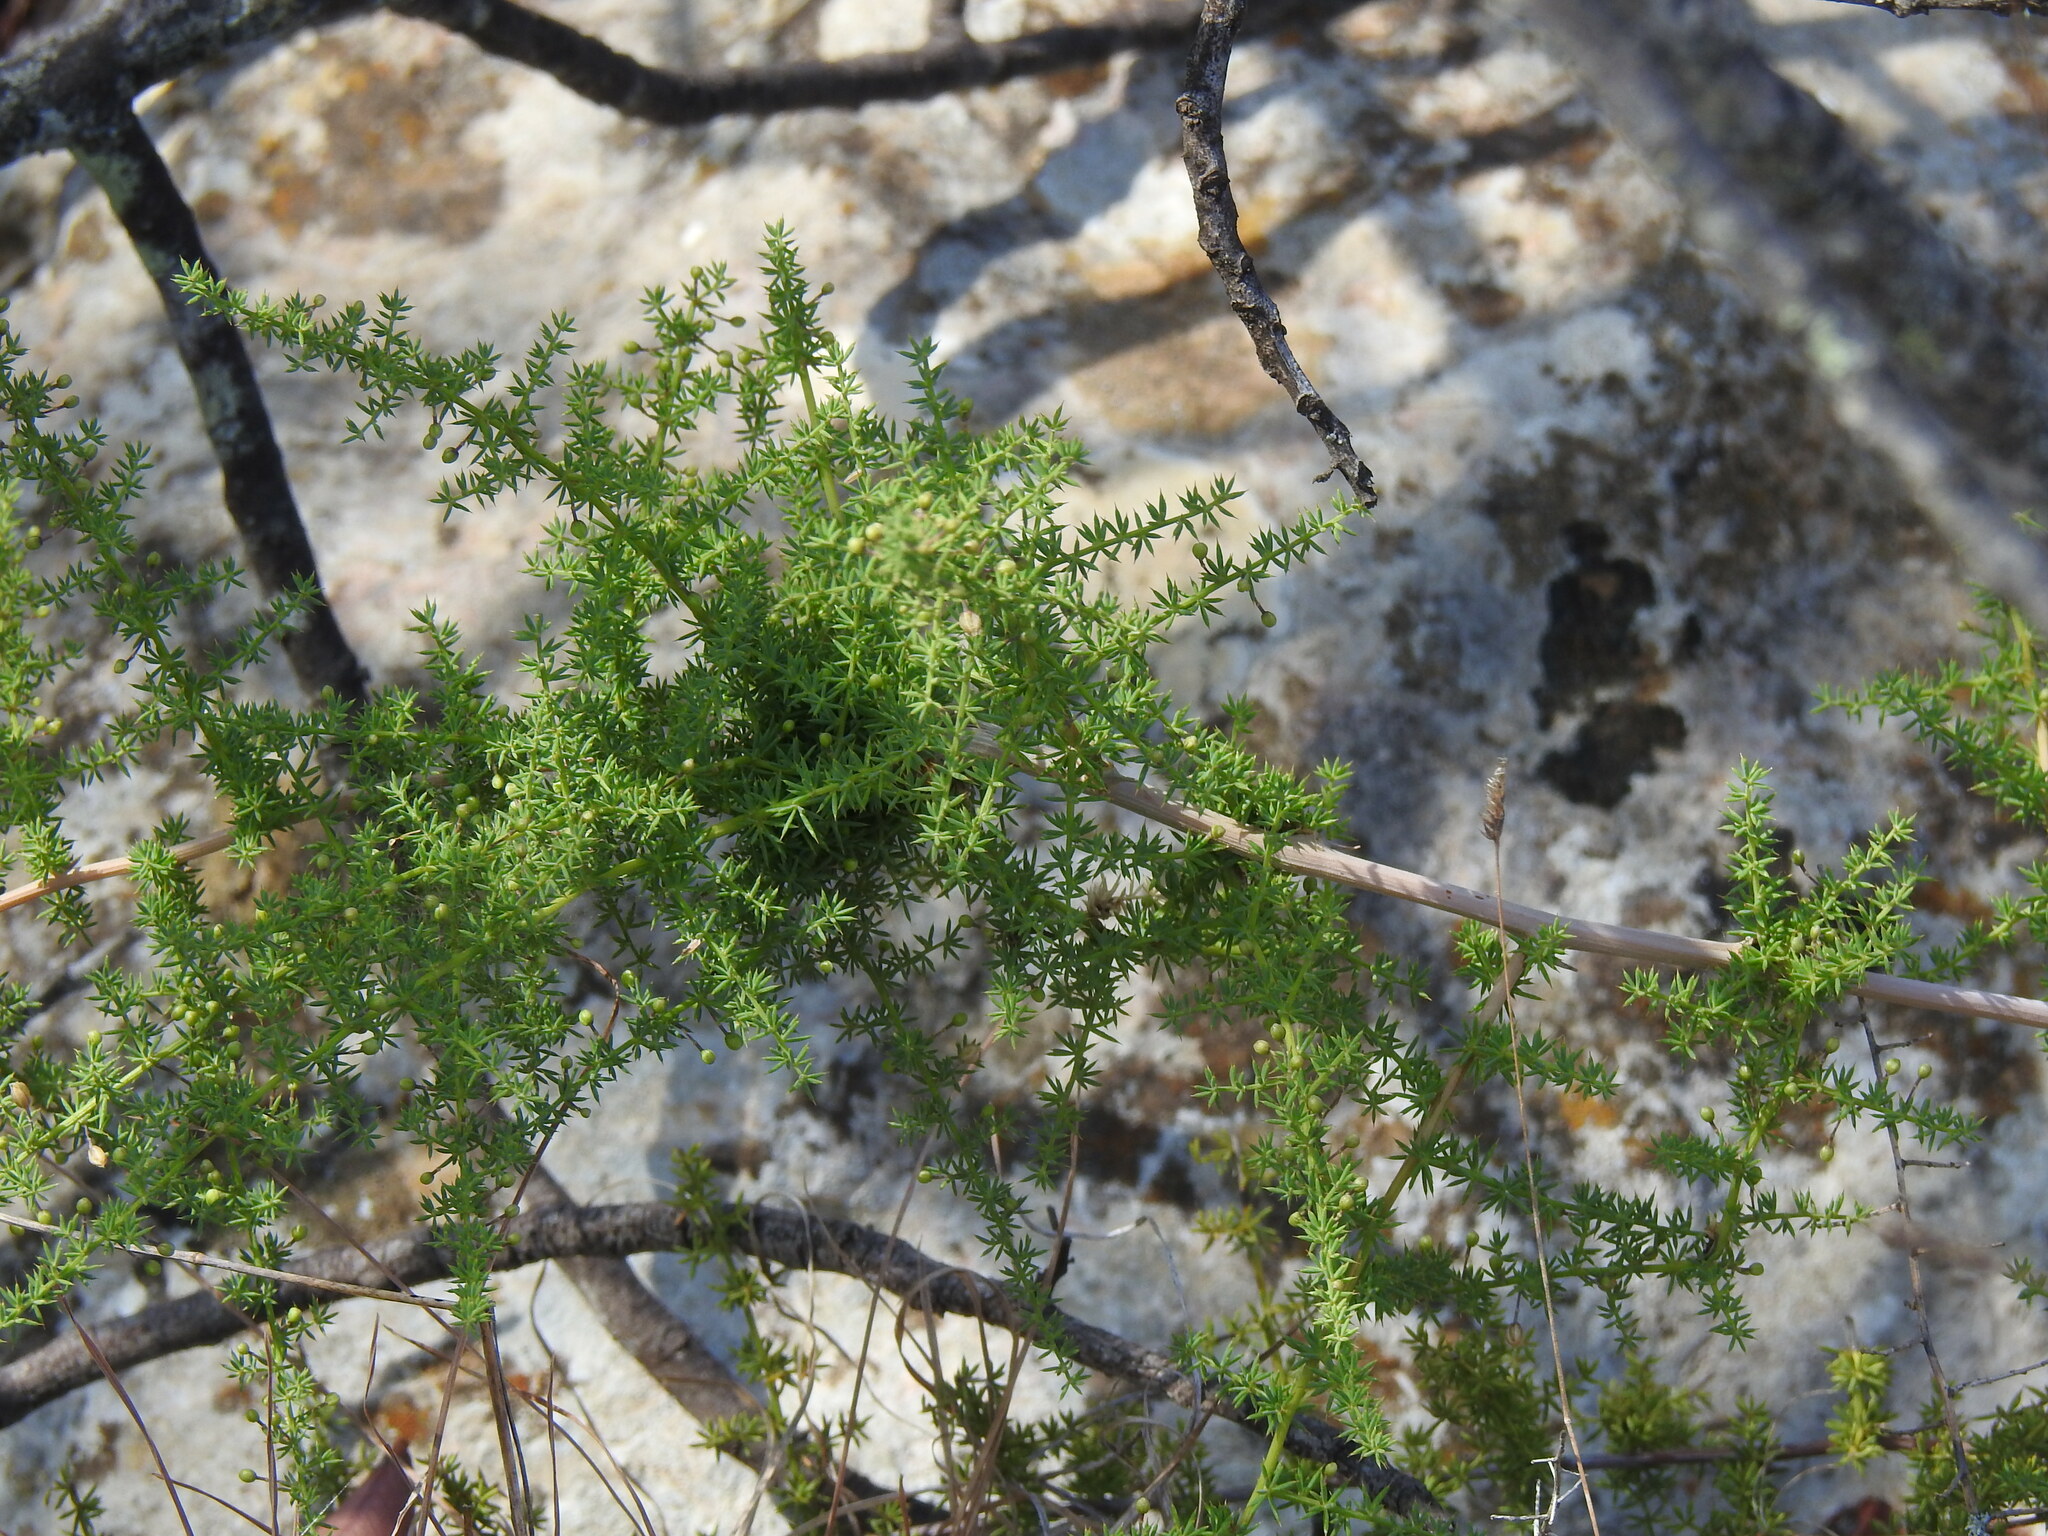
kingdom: Plantae
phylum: Tracheophyta
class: Liliopsida
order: Asparagales
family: Asparagaceae
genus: Asparagus
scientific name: Asparagus acutifolius
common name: Wild asparagus
